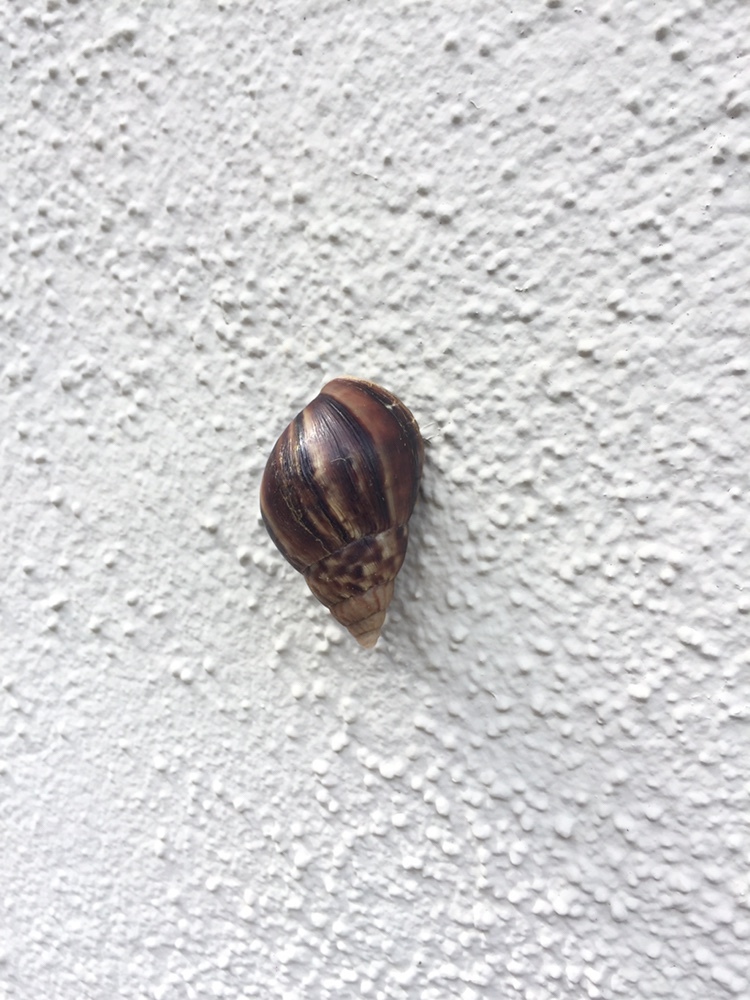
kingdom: Animalia
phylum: Mollusca
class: Gastropoda
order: Stylommatophora
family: Achatinidae
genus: Lissachatina
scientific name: Lissachatina fulica
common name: Giant african snail
